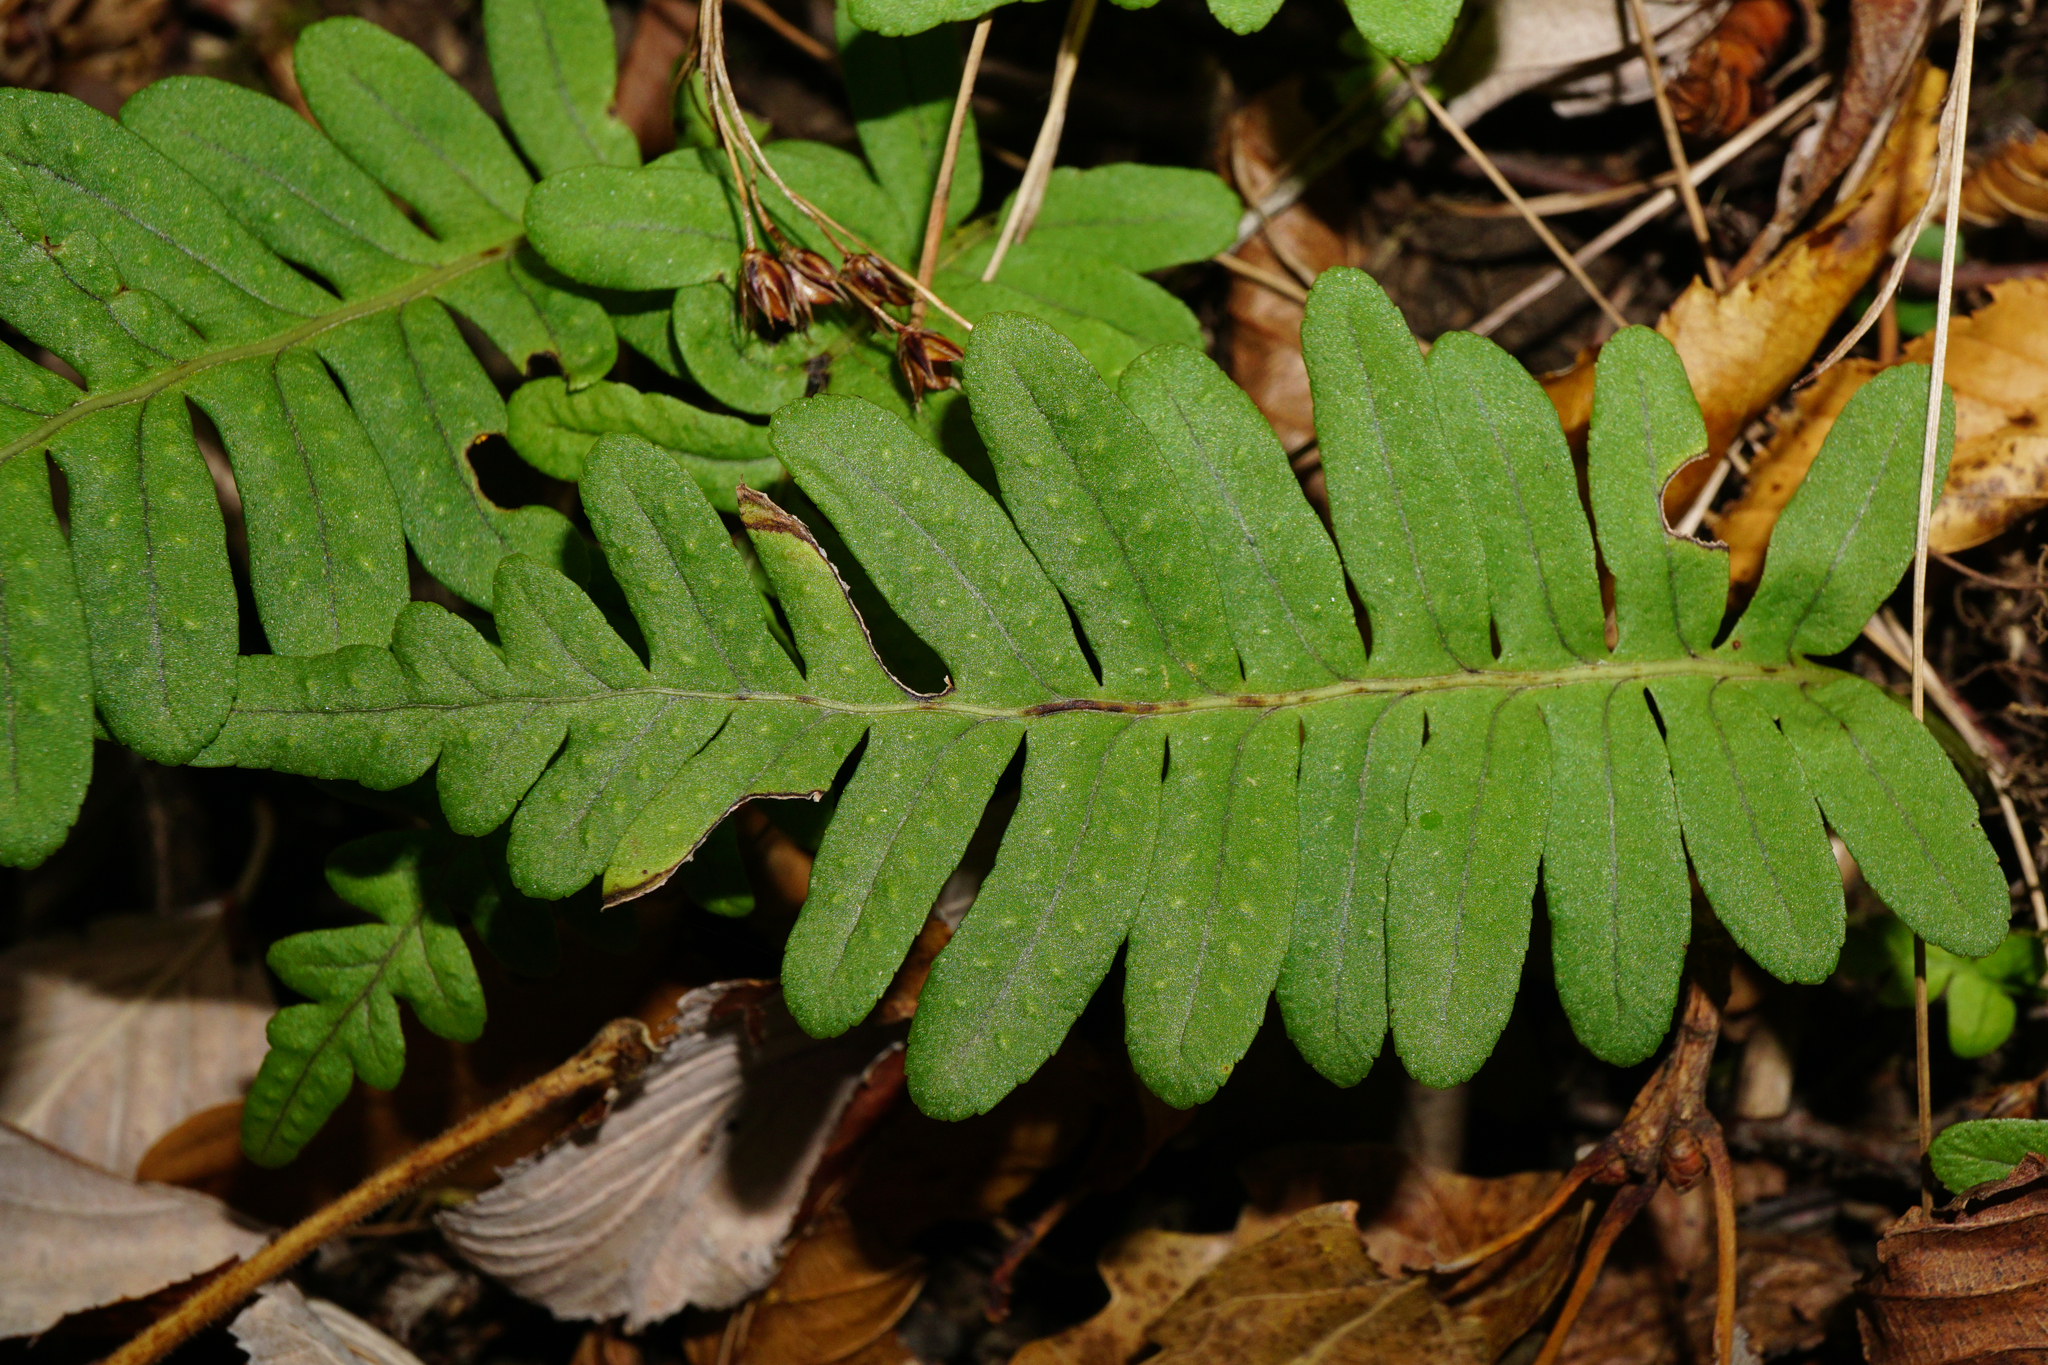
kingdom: Plantae
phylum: Tracheophyta
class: Polypodiopsida
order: Polypodiales
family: Polypodiaceae
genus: Polypodium
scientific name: Polypodium interjectum
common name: Intermediate polypody
